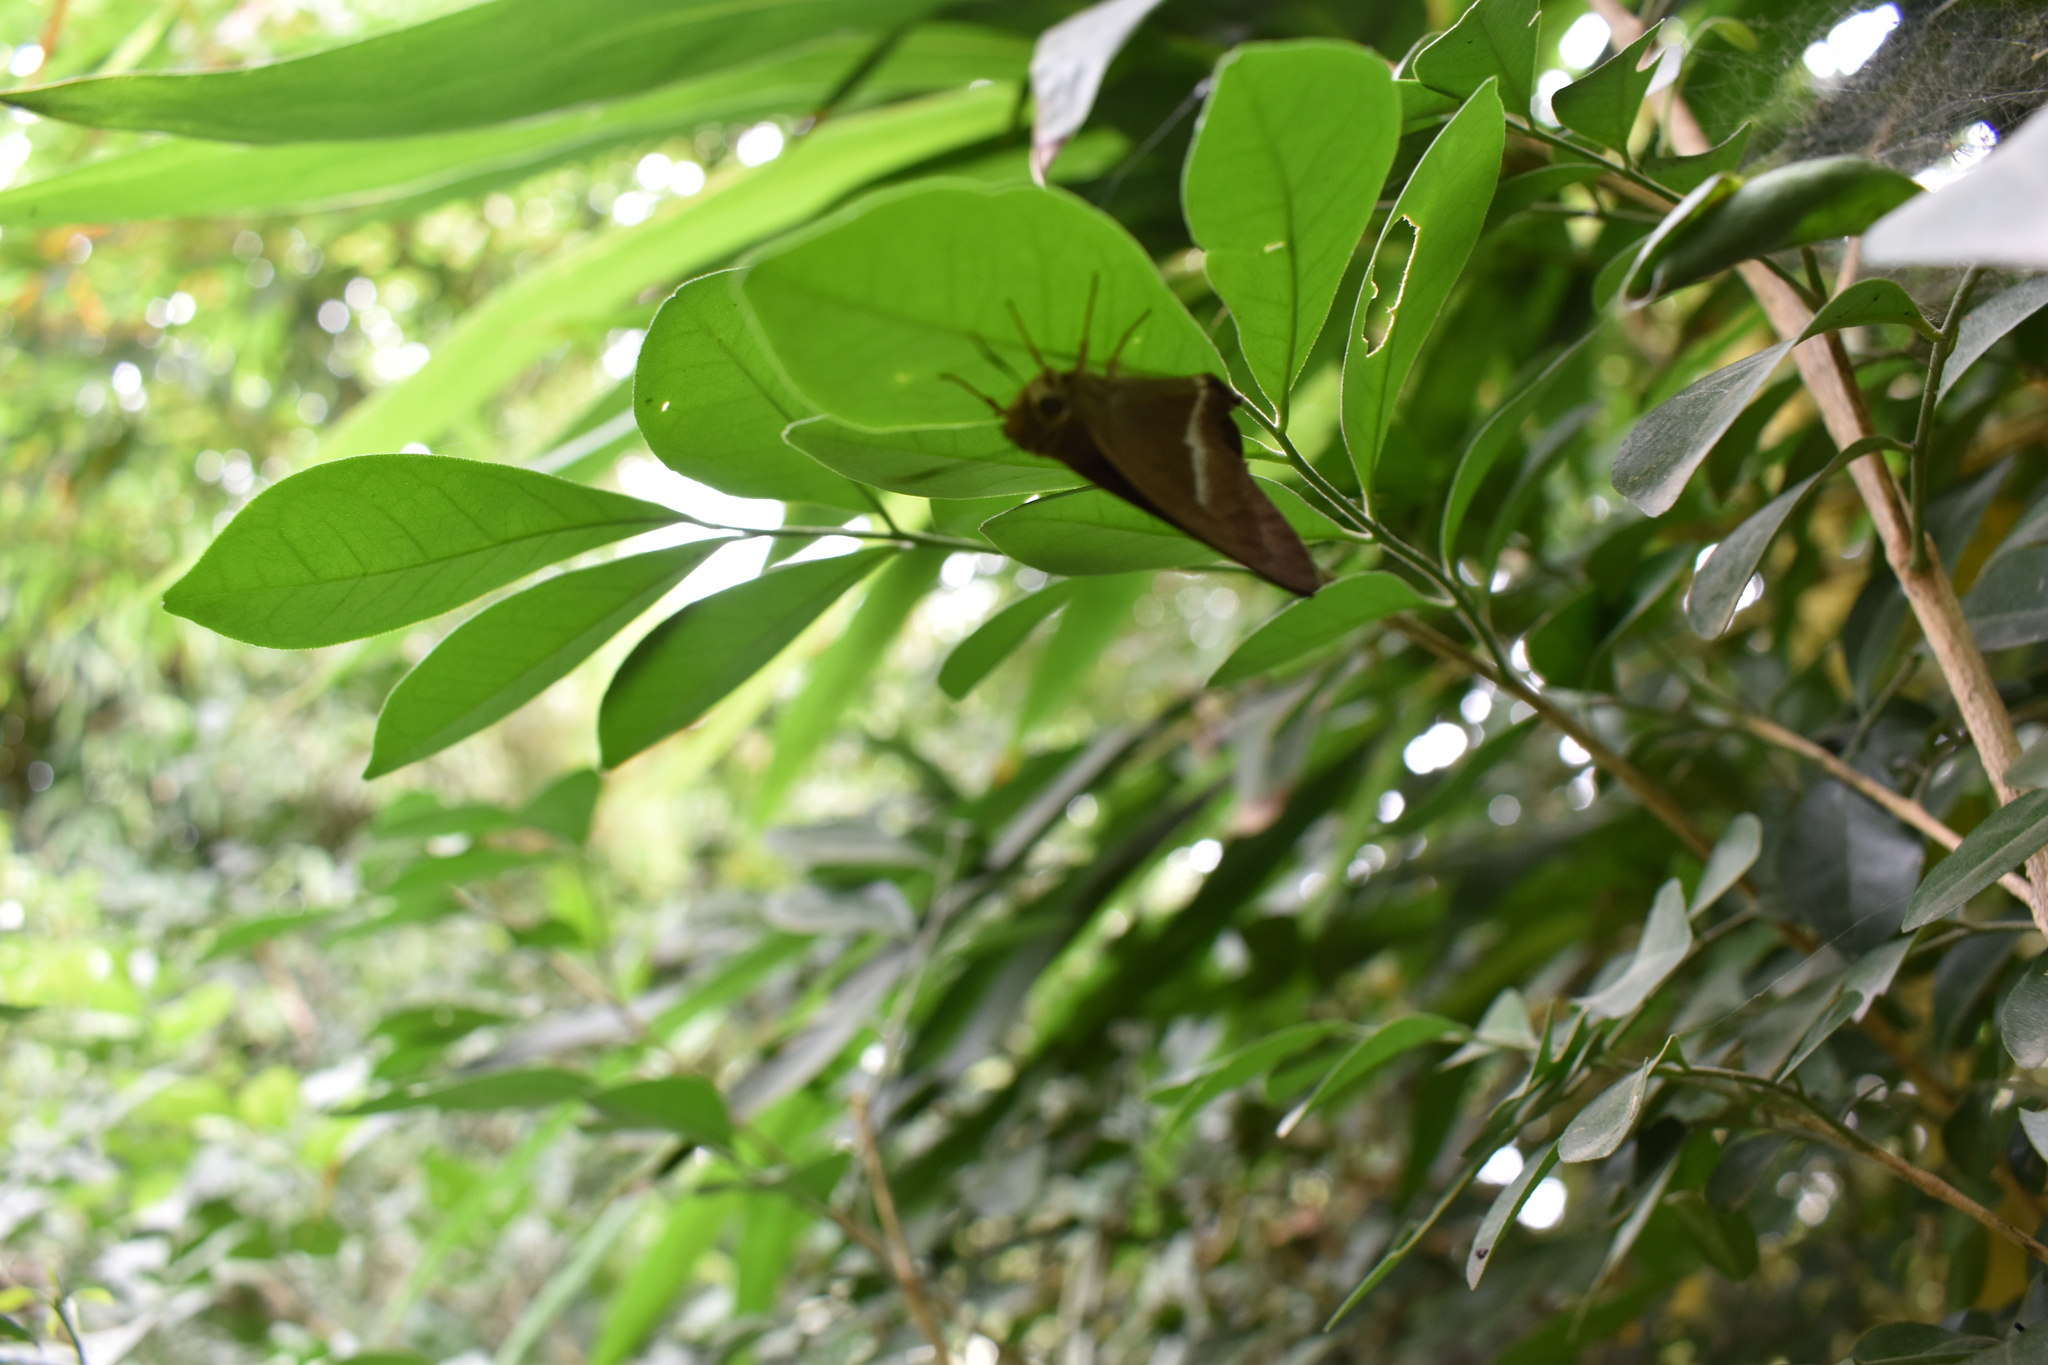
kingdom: Animalia
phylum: Arthropoda
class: Insecta
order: Lepidoptera
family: Hesperiidae
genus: Hasora
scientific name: Hasora chromus
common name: Common banded awl
